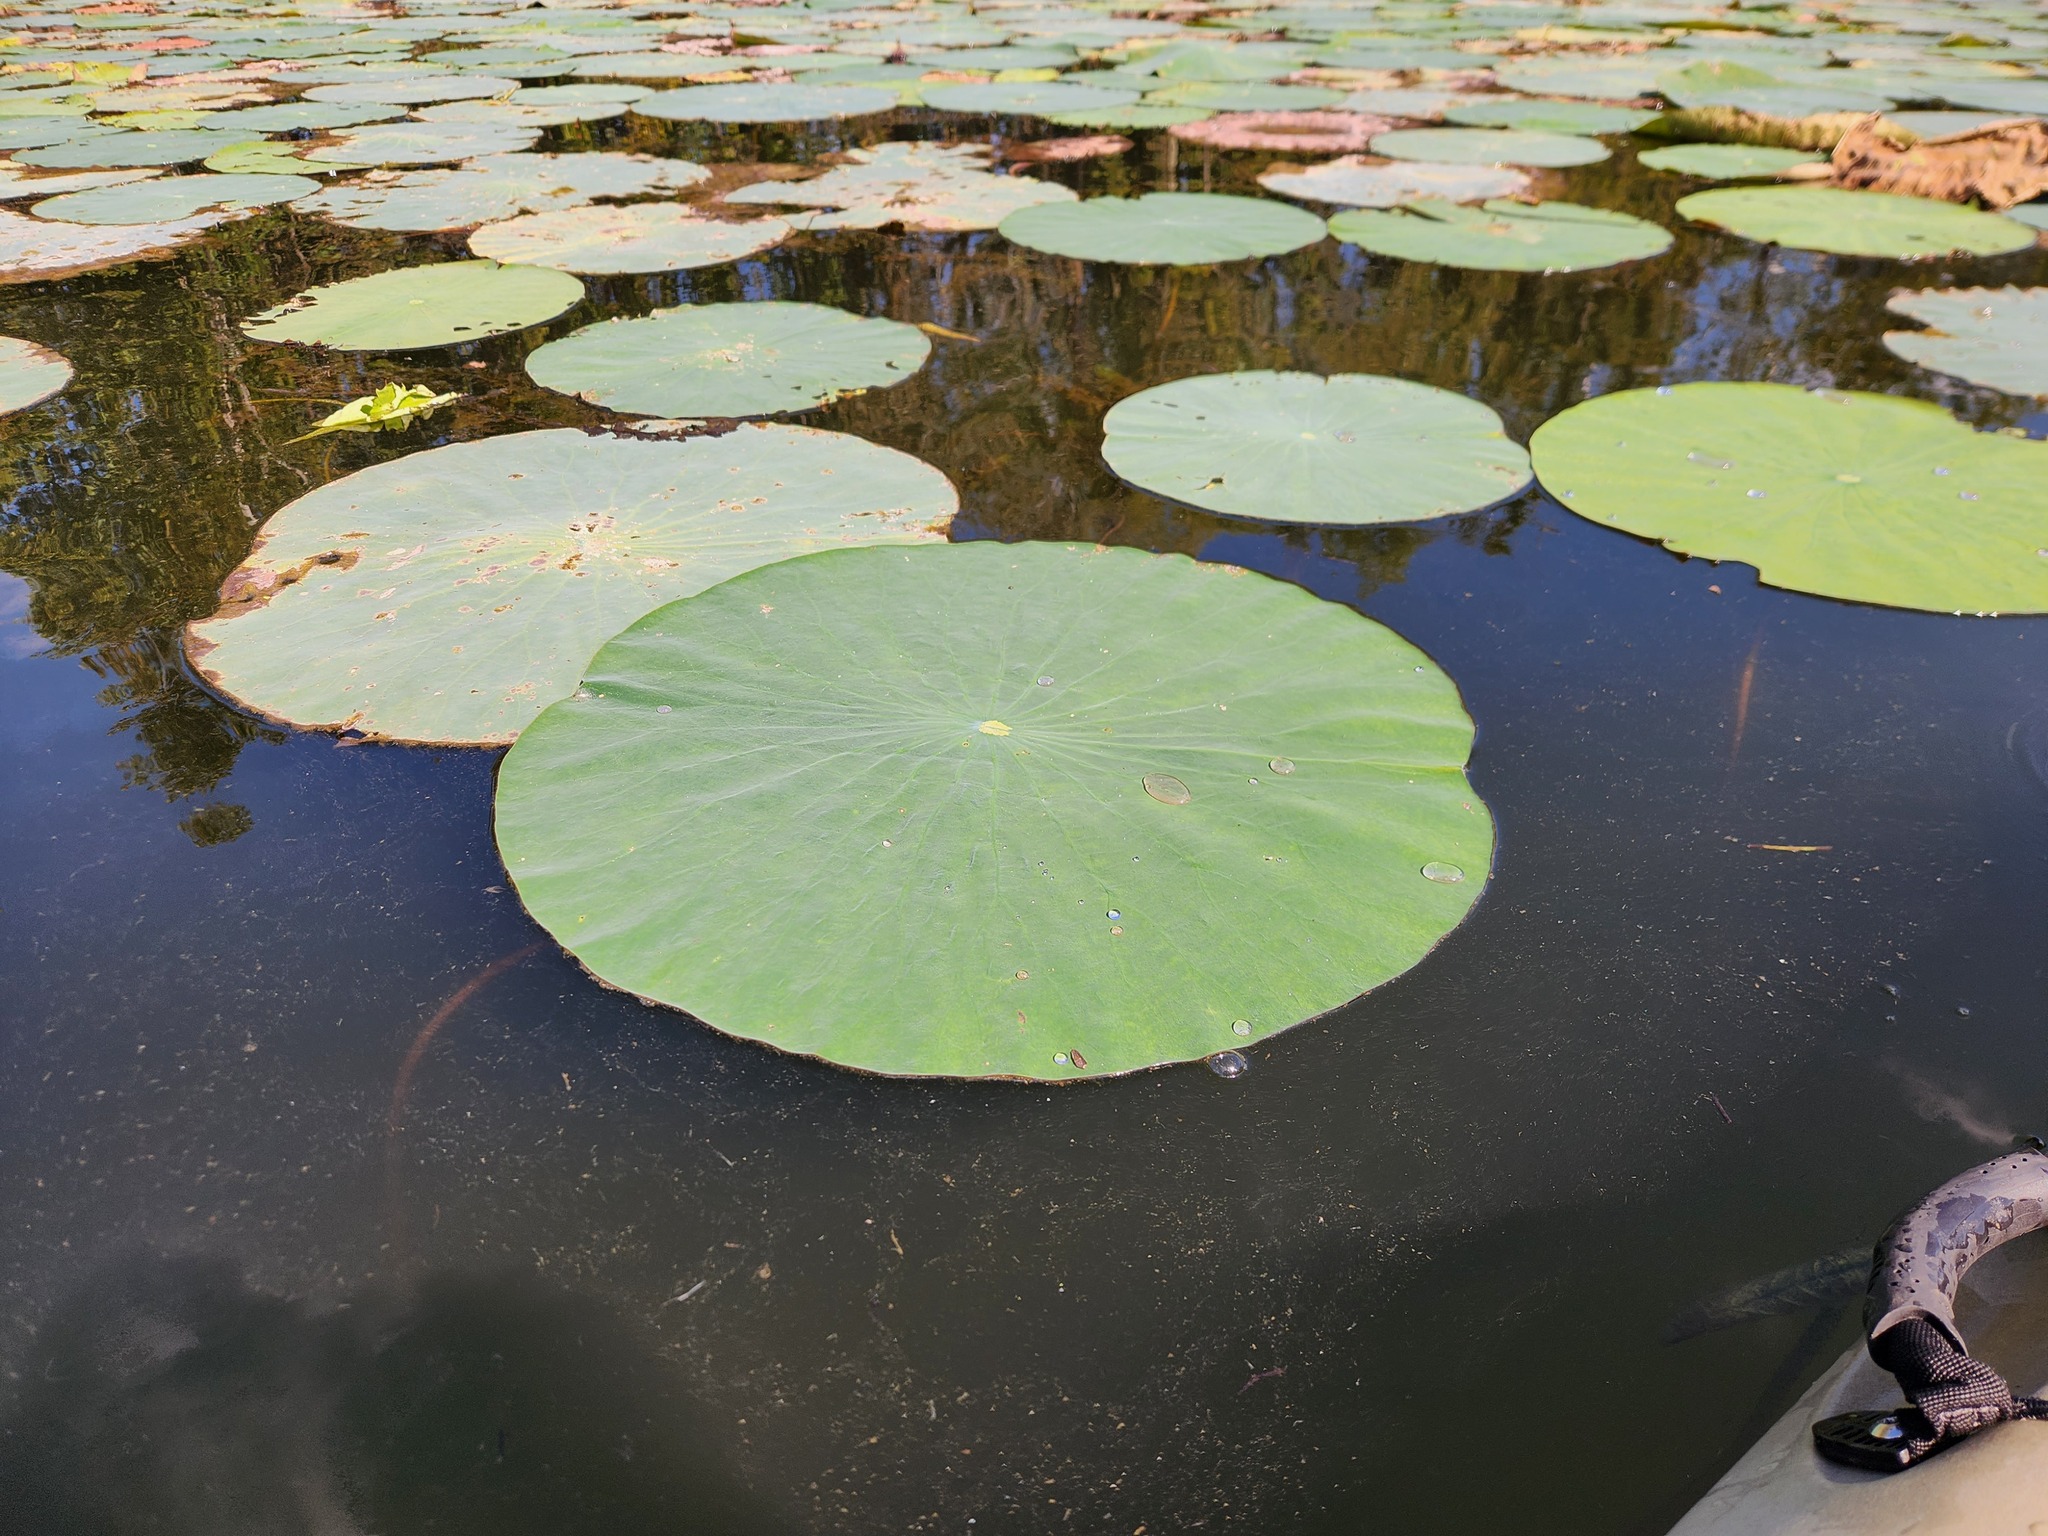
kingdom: Plantae
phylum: Tracheophyta
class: Magnoliopsida
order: Proteales
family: Nelumbonaceae
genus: Nelumbo
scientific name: Nelumbo lutea
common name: American lotus
